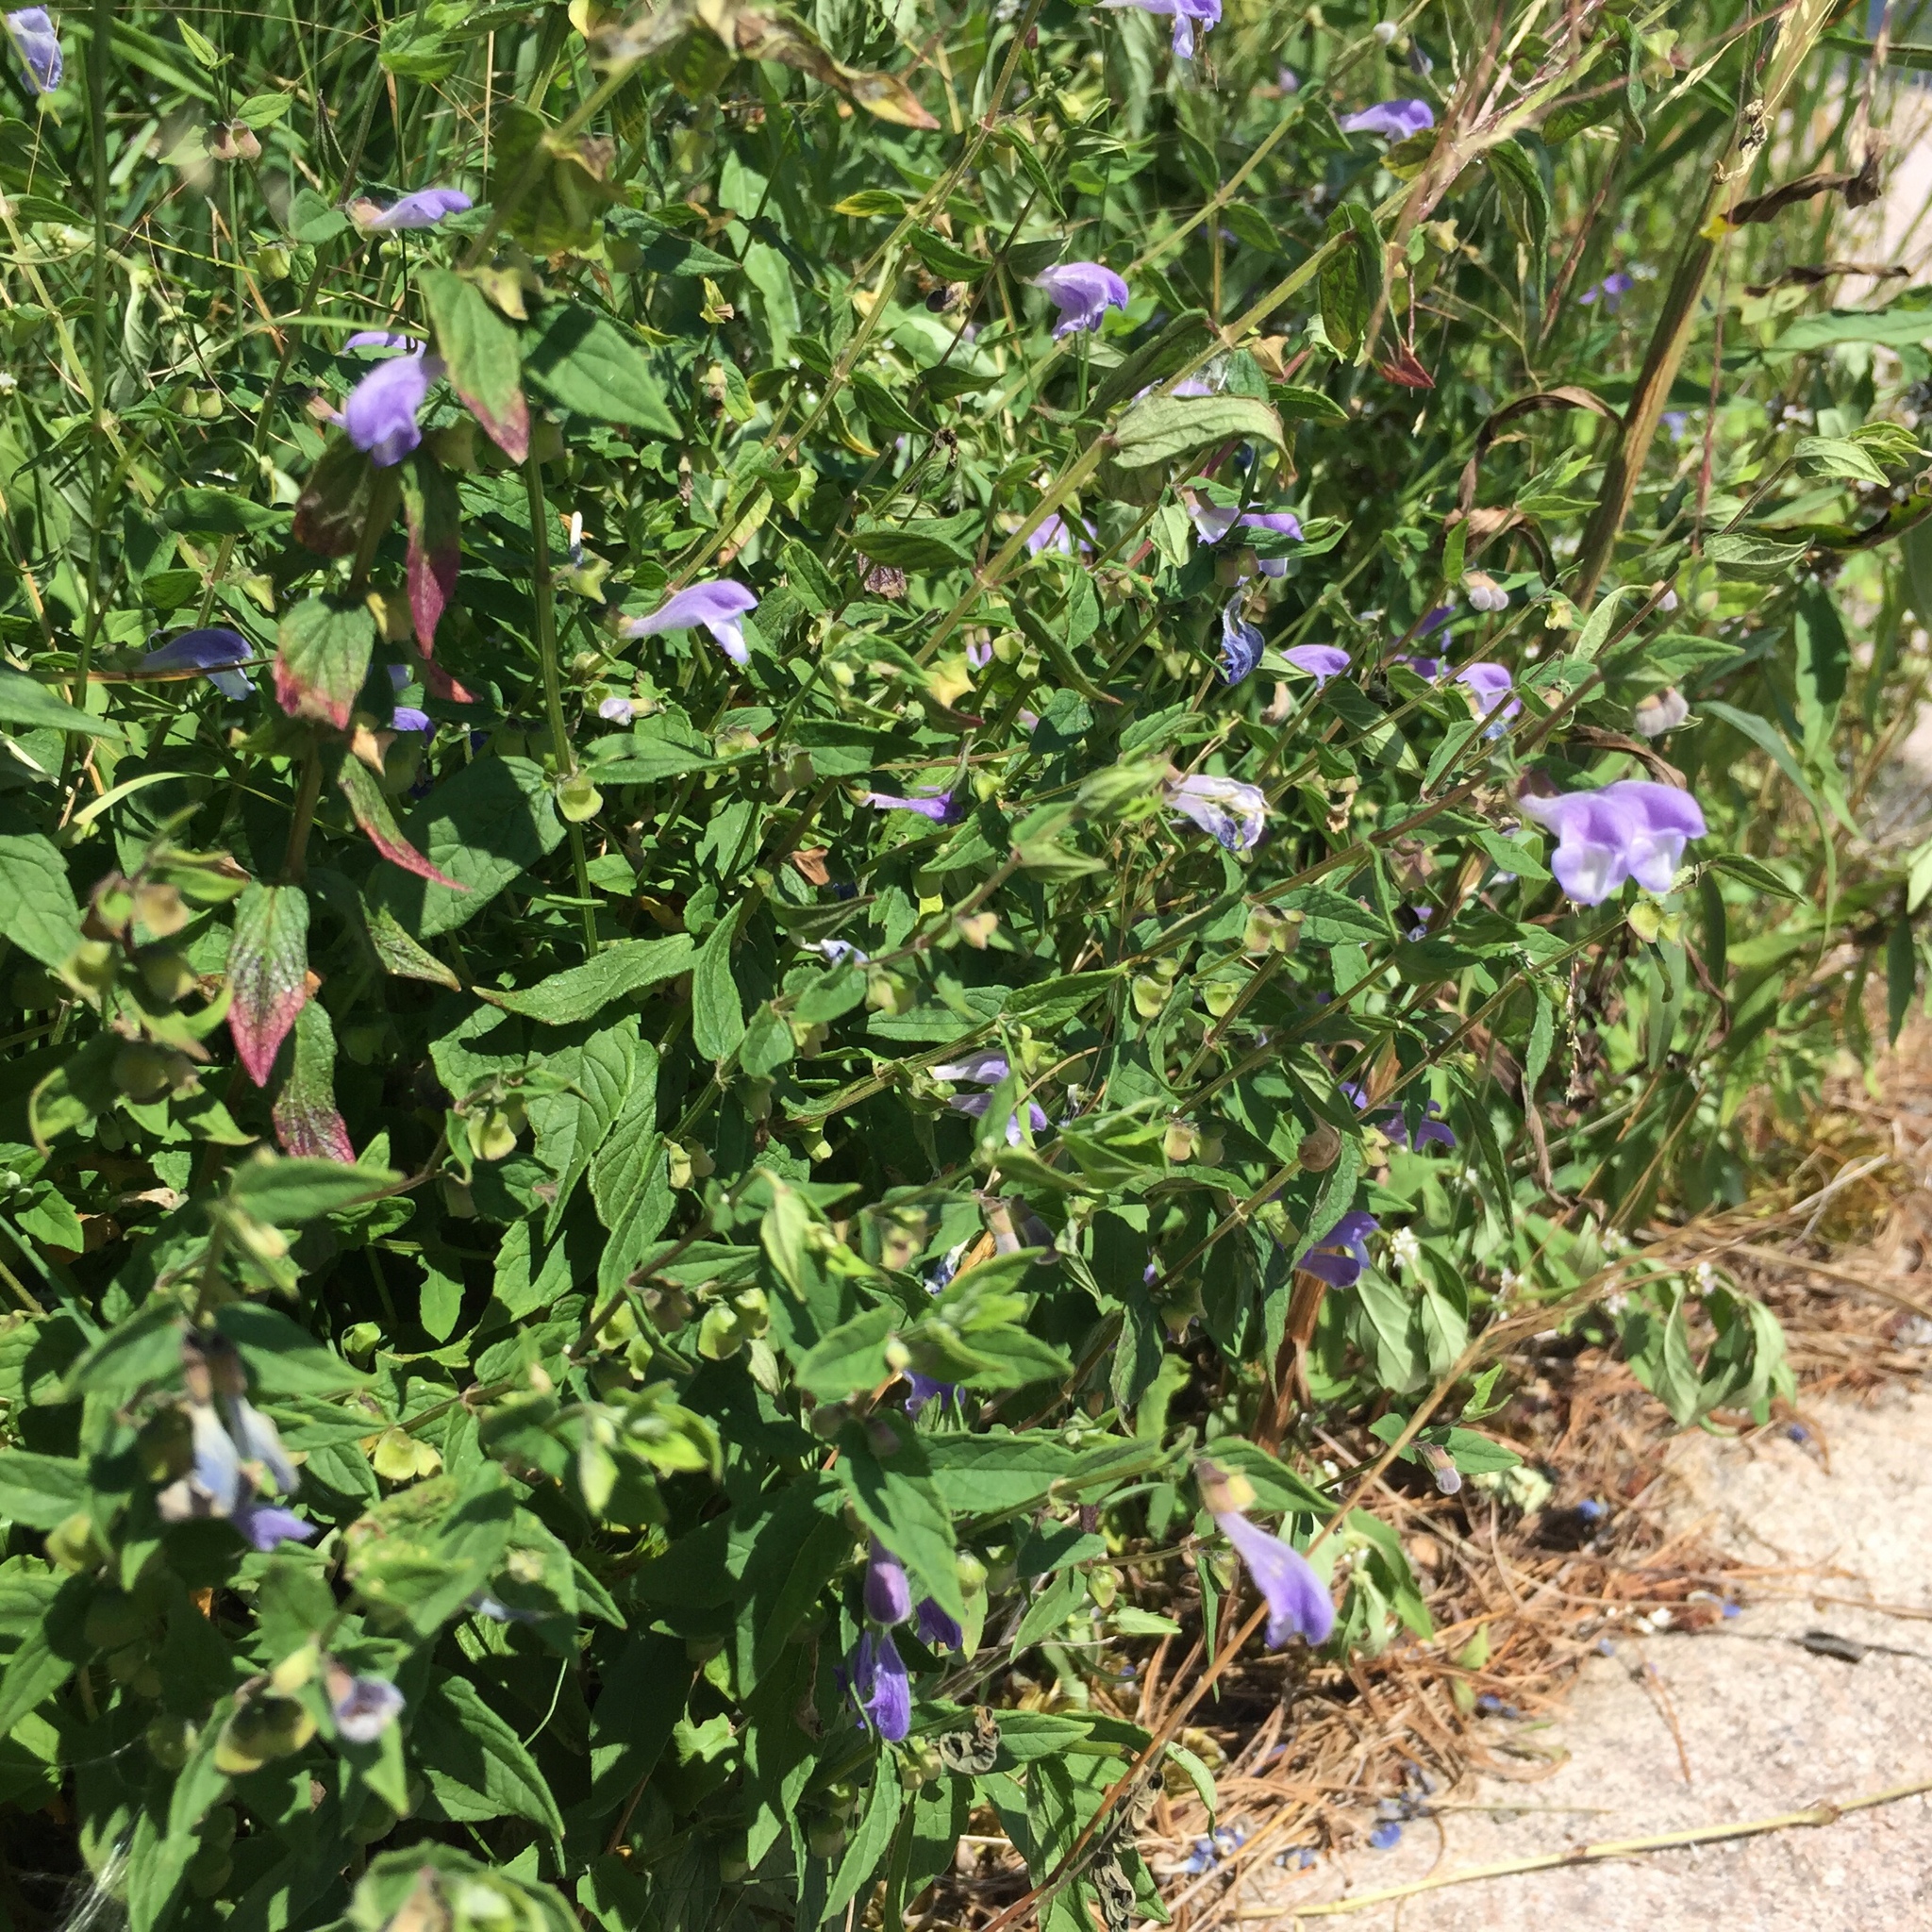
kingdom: Plantae
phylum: Tracheophyta
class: Magnoliopsida
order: Lamiales
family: Lamiaceae
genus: Scutellaria
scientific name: Scutellaria galericulata
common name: Skullcap
